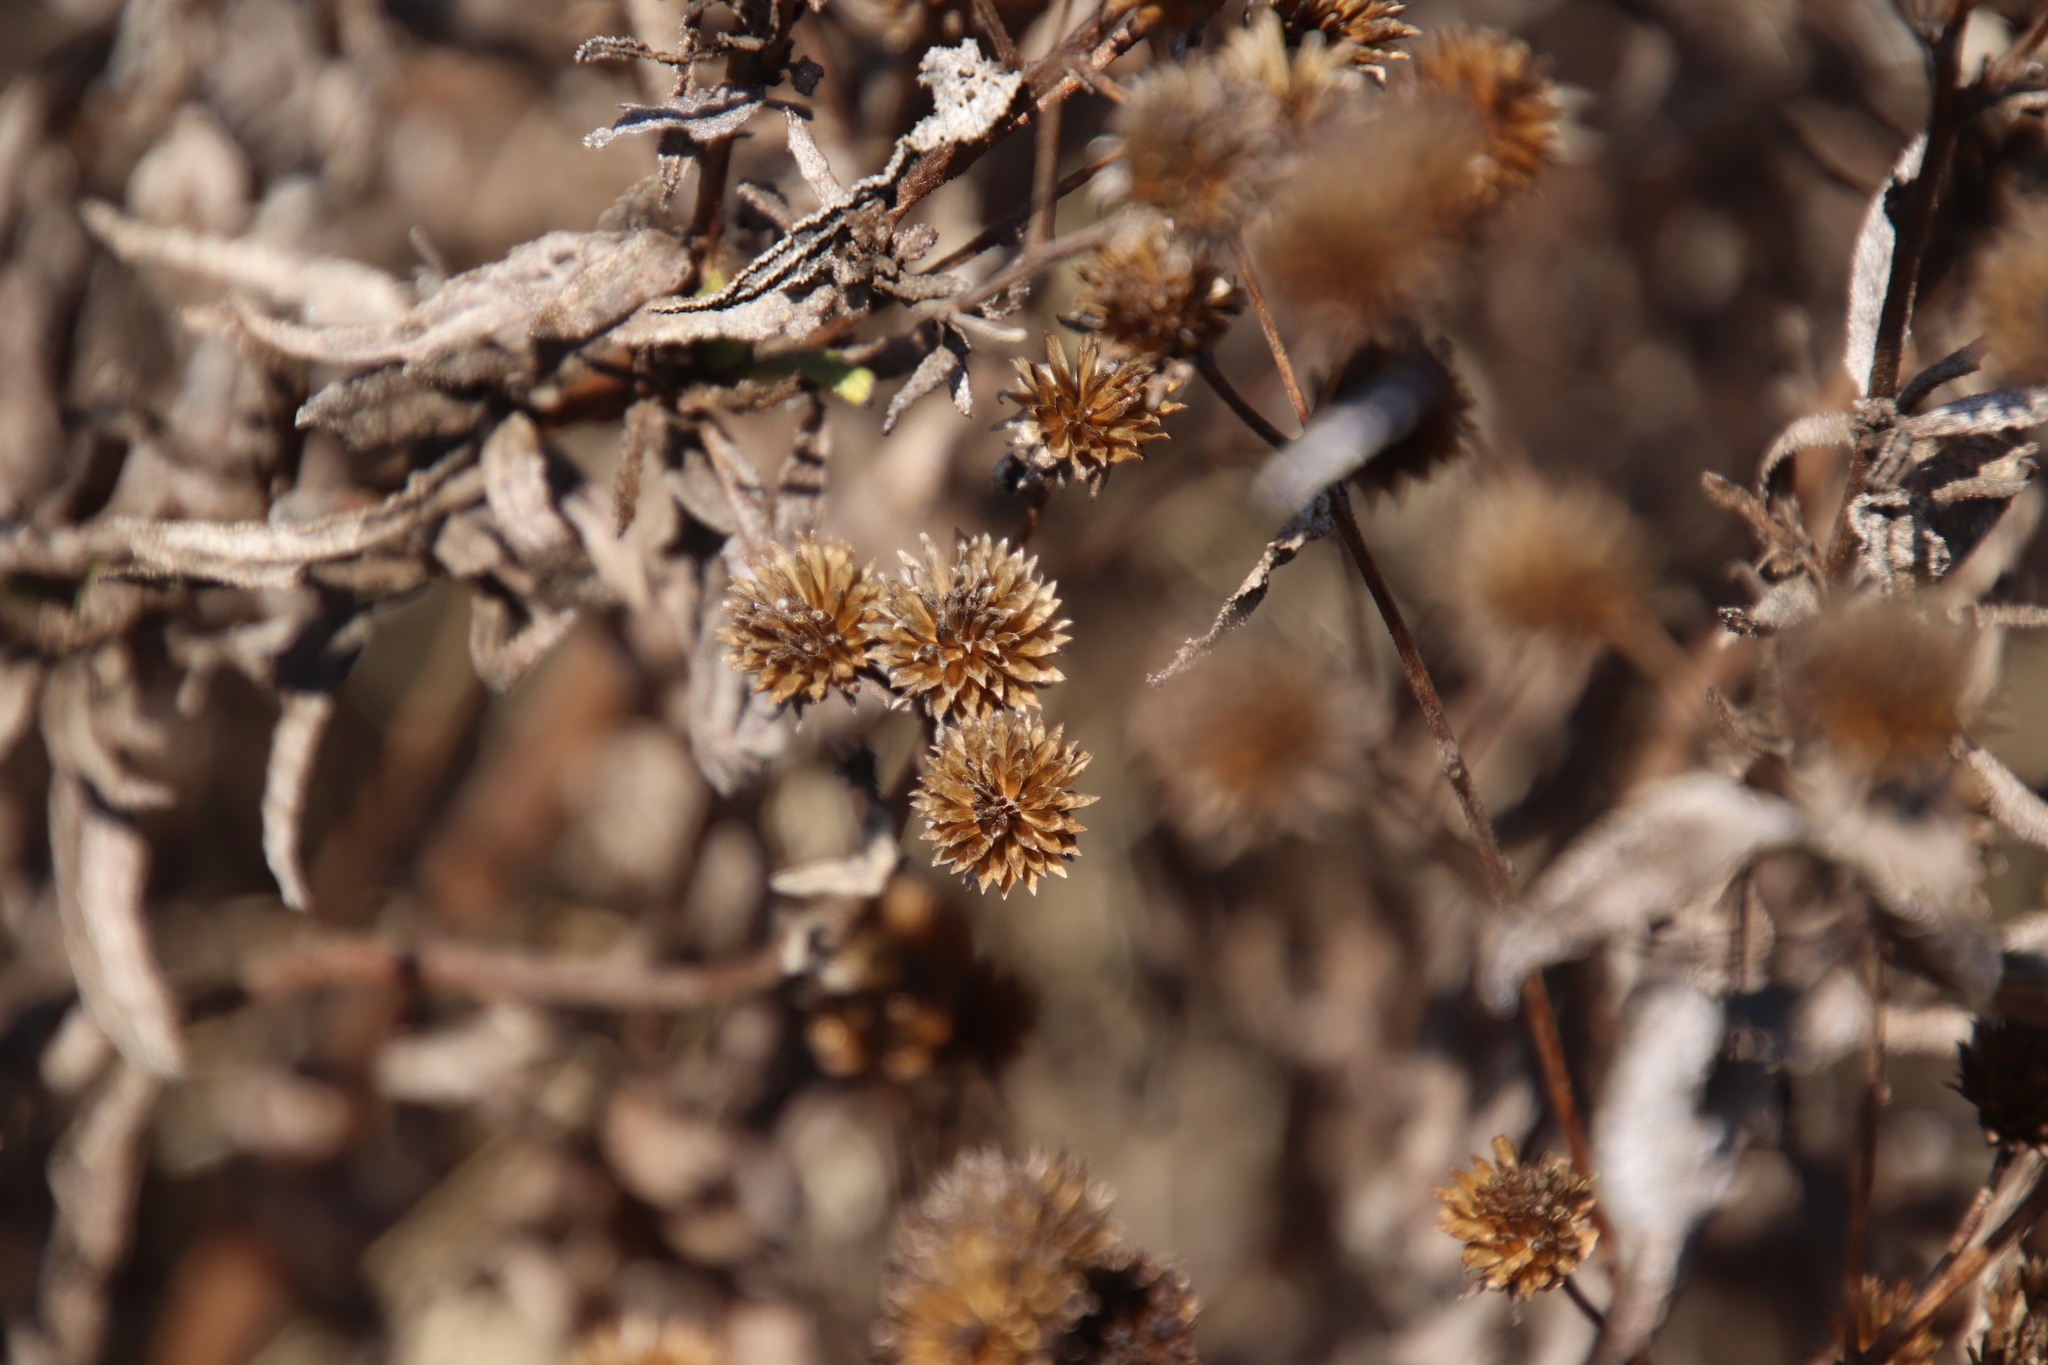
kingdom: Plantae
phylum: Tracheophyta
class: Magnoliopsida
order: Asterales
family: Asteraceae
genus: Bahiopsis
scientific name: Bahiopsis laciniata
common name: San diego county viguiera
